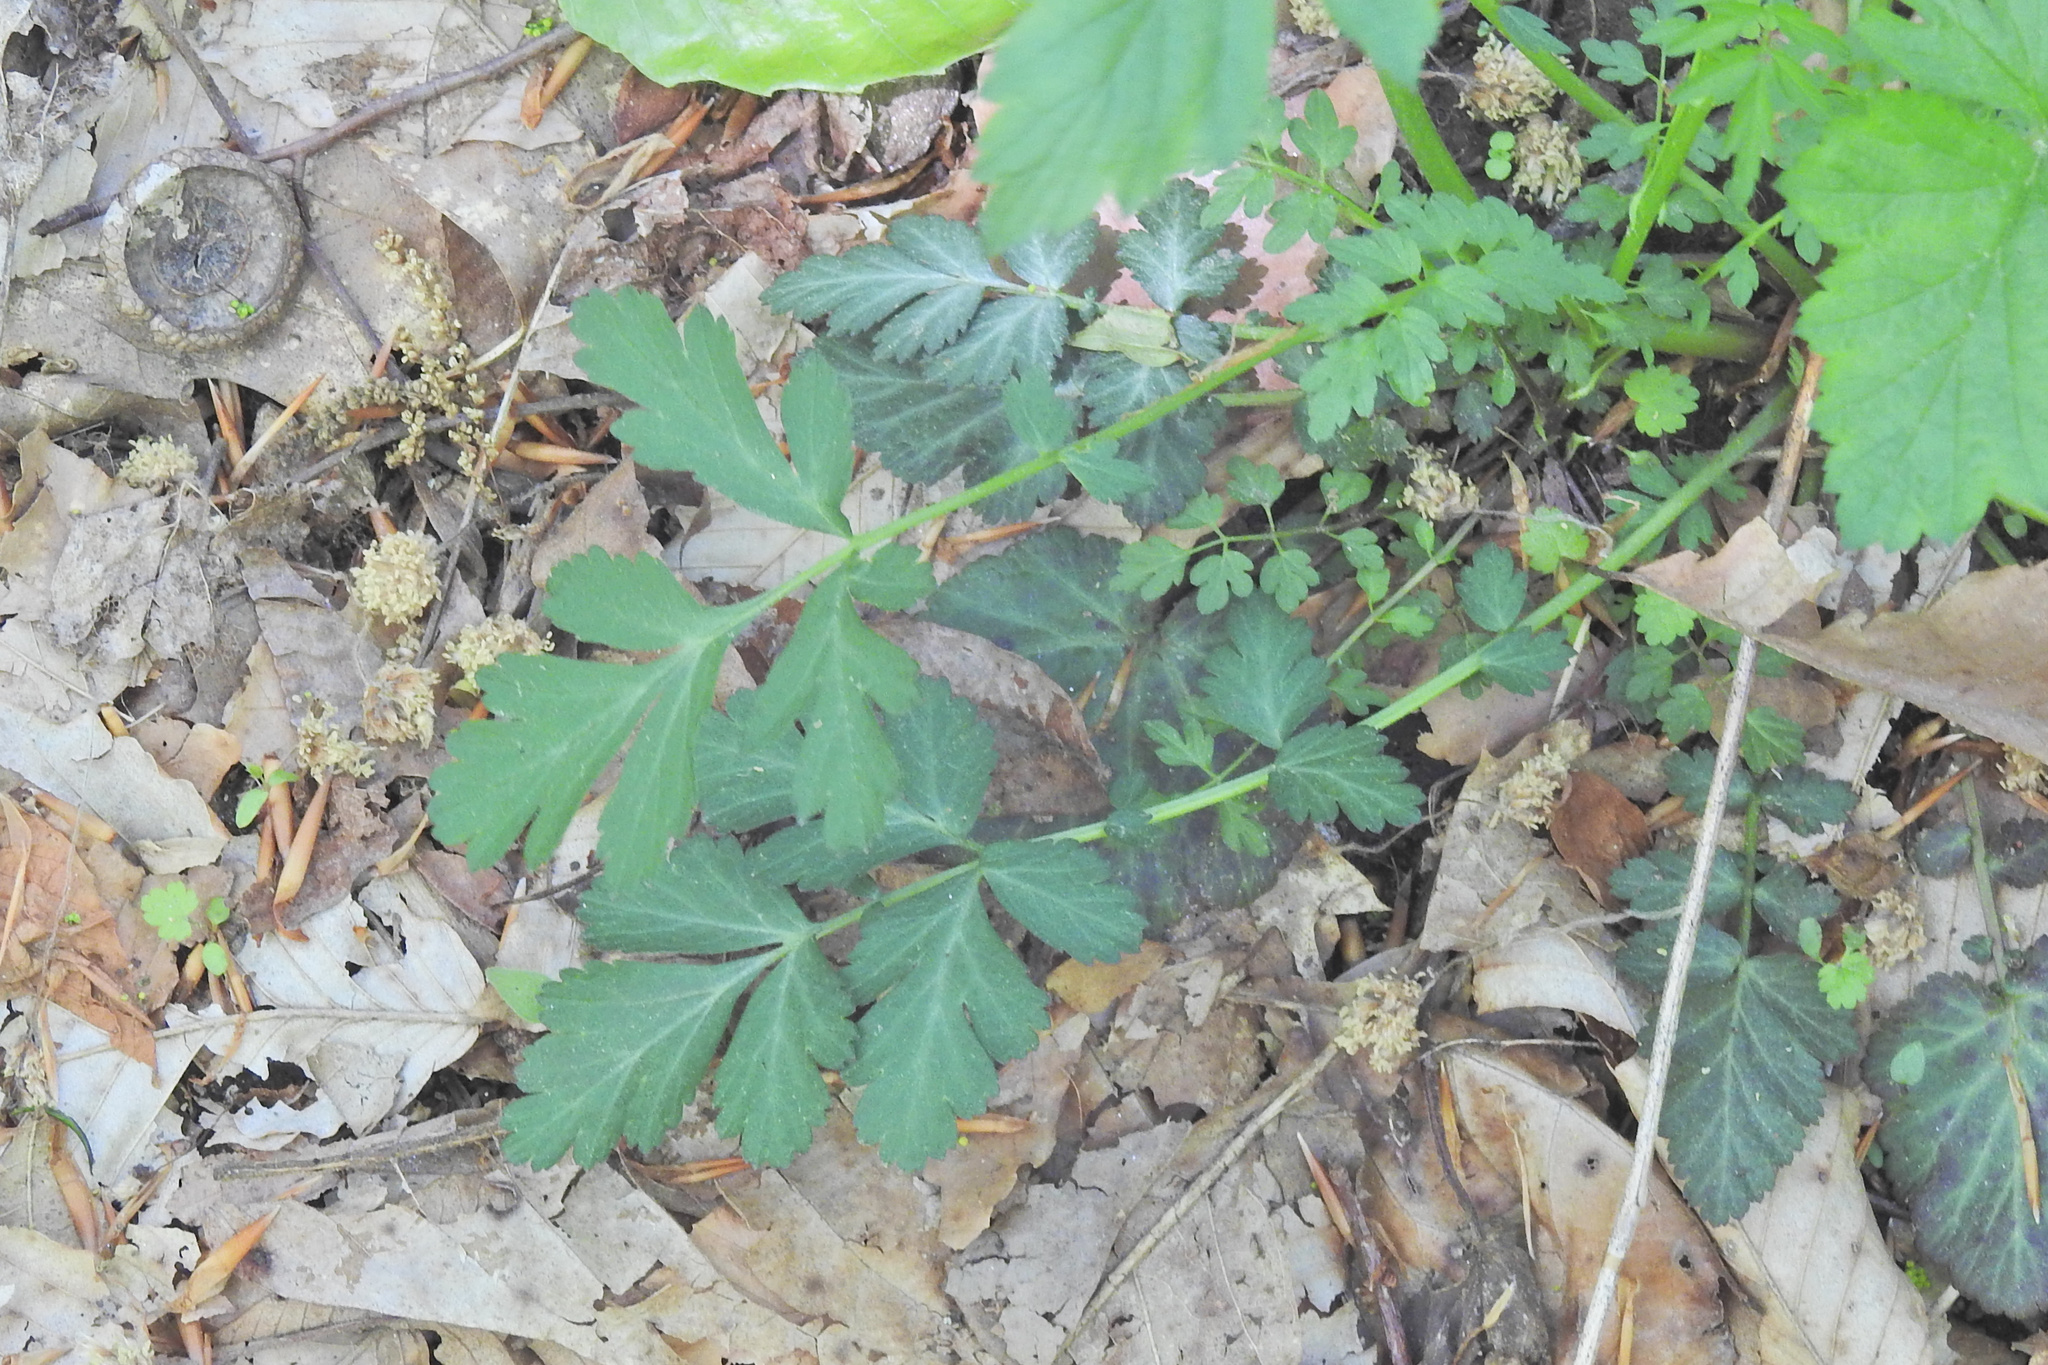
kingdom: Plantae
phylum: Tracheophyta
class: Magnoliopsida
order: Rosales
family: Rosaceae
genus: Geum
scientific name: Geum canadense
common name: White avens
